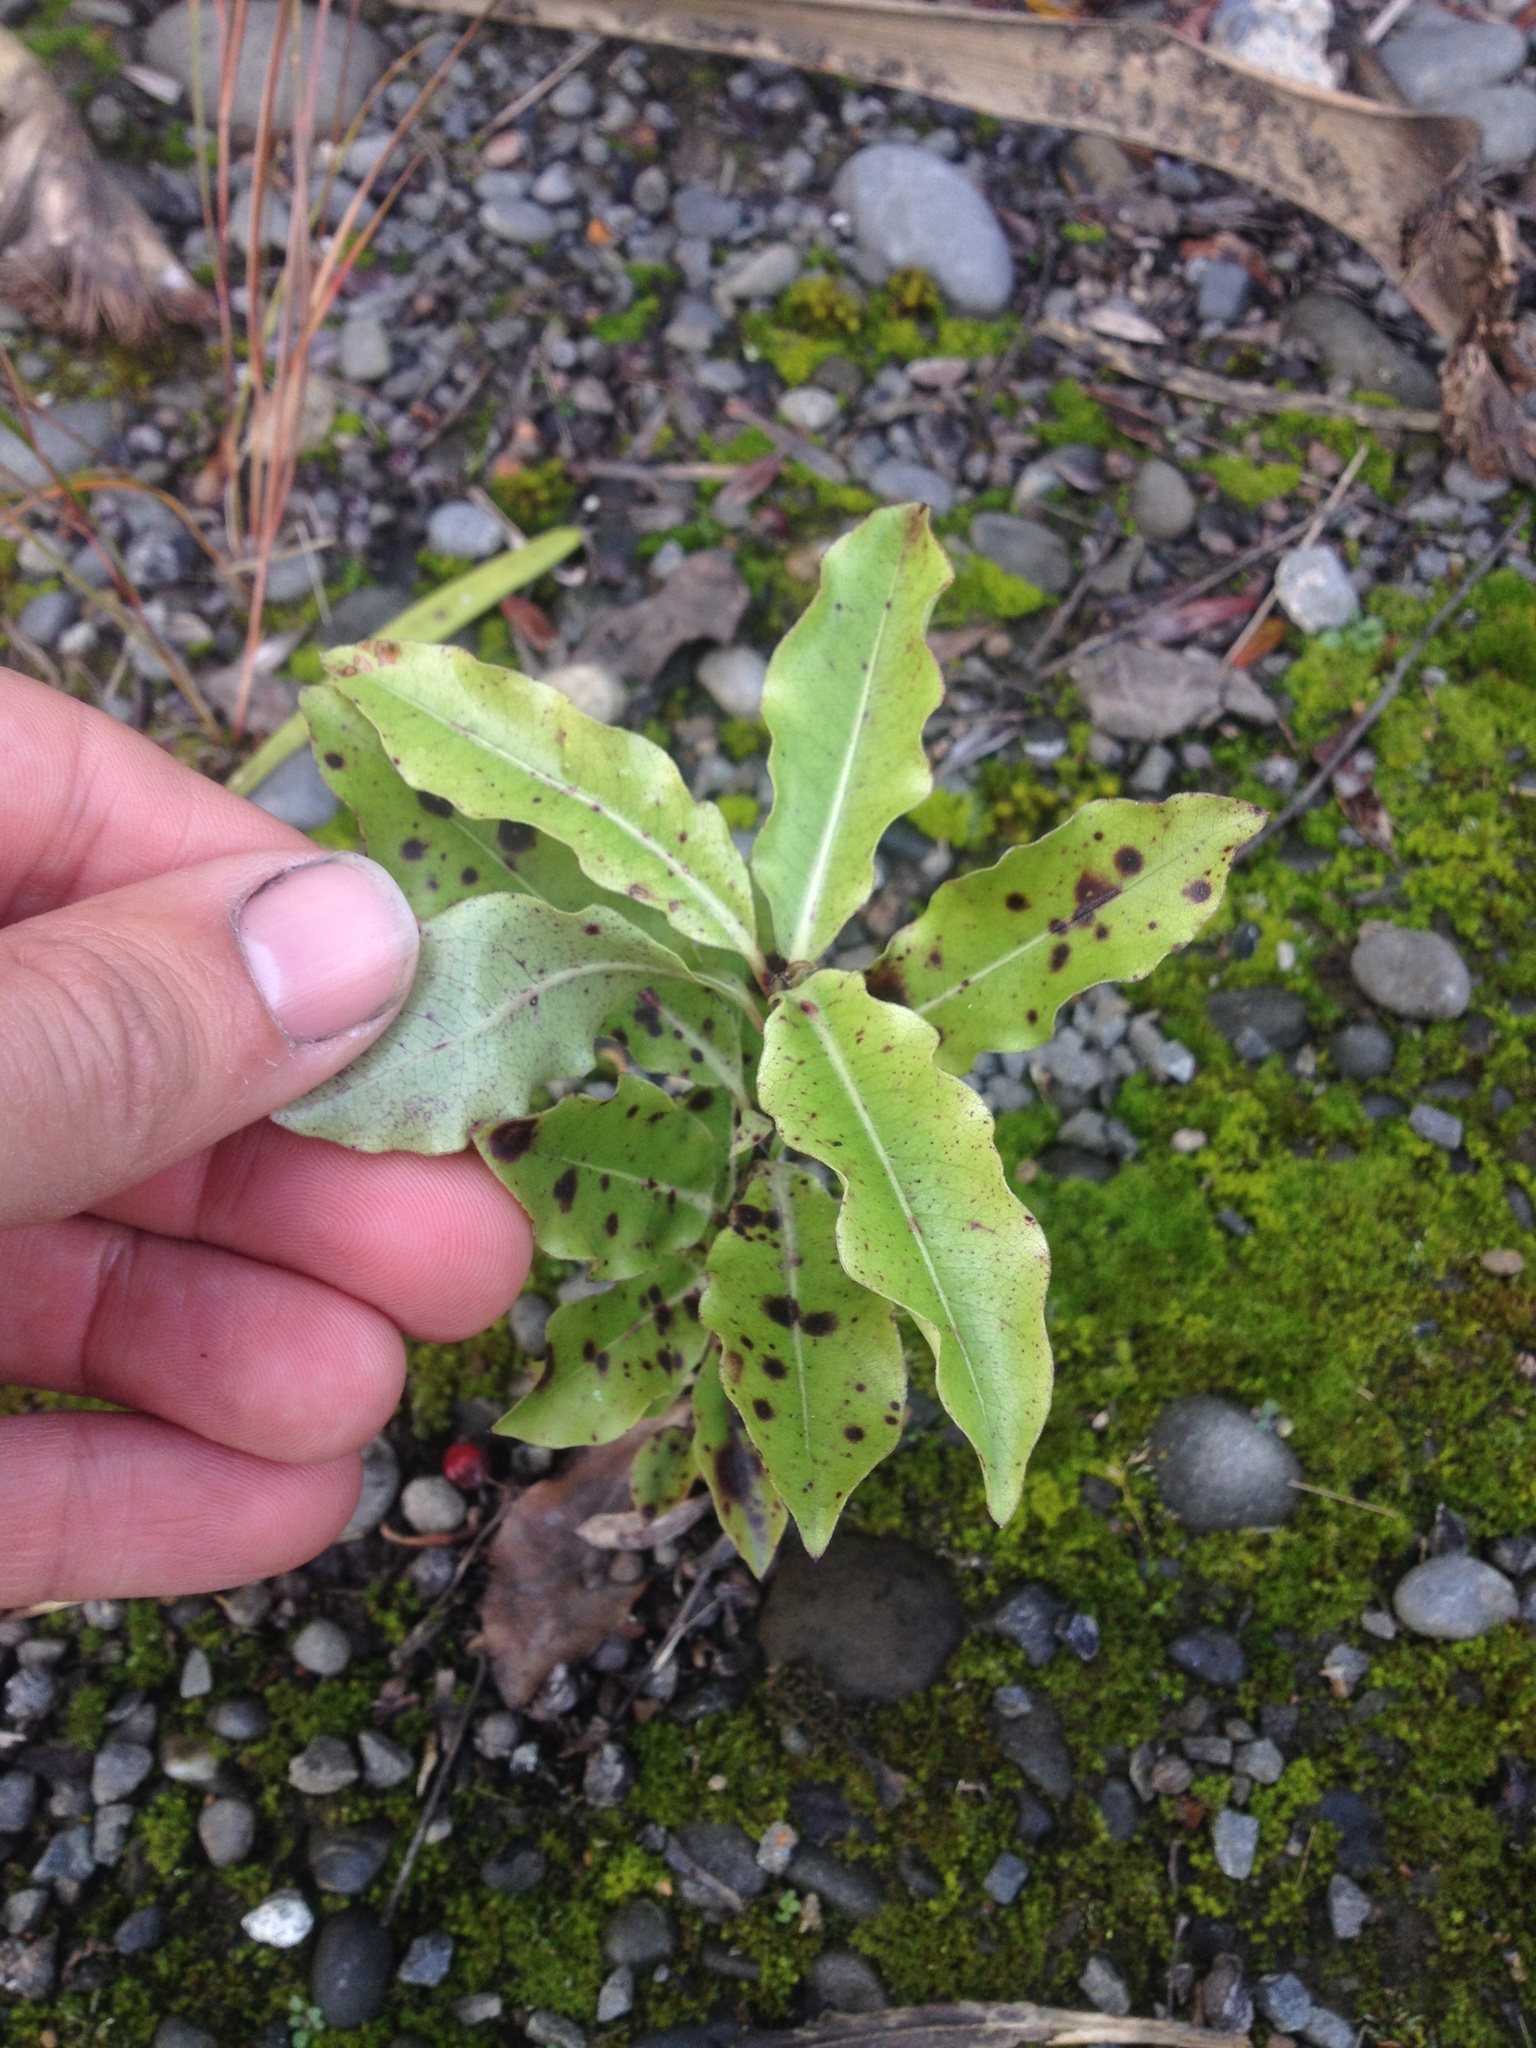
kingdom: Plantae
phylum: Tracheophyta
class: Magnoliopsida
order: Apiales
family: Pittosporaceae
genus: Pittosporum
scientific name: Pittosporum eugenioides
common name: Lemonwood
